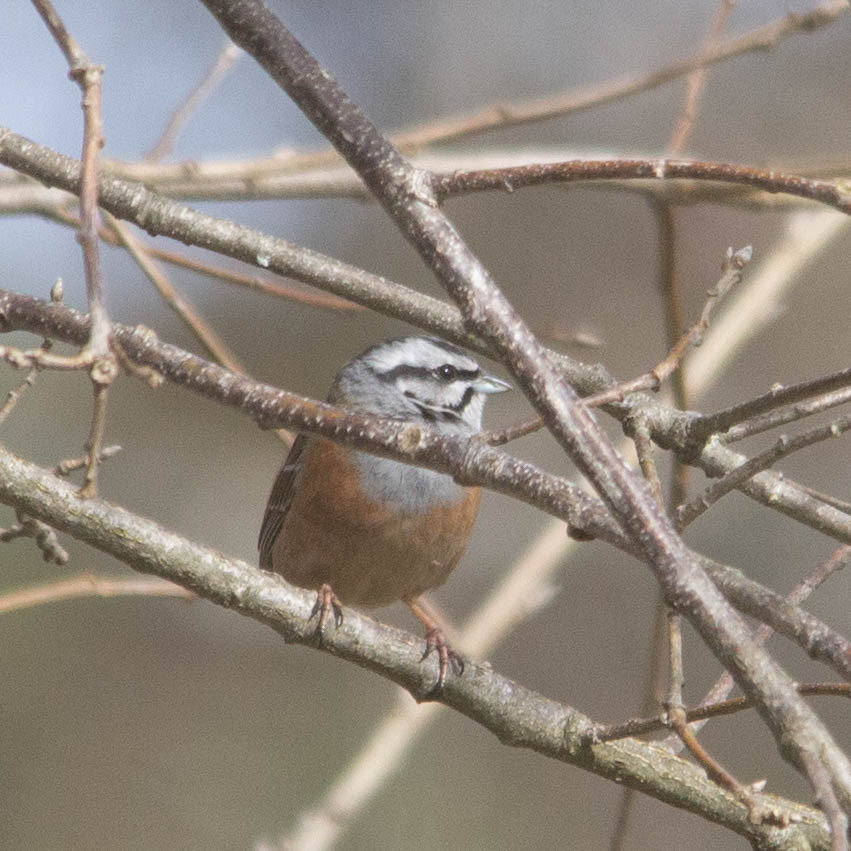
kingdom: Animalia
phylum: Chordata
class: Aves
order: Passeriformes
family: Emberizidae
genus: Emberiza
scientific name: Emberiza cia
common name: Rock bunting
